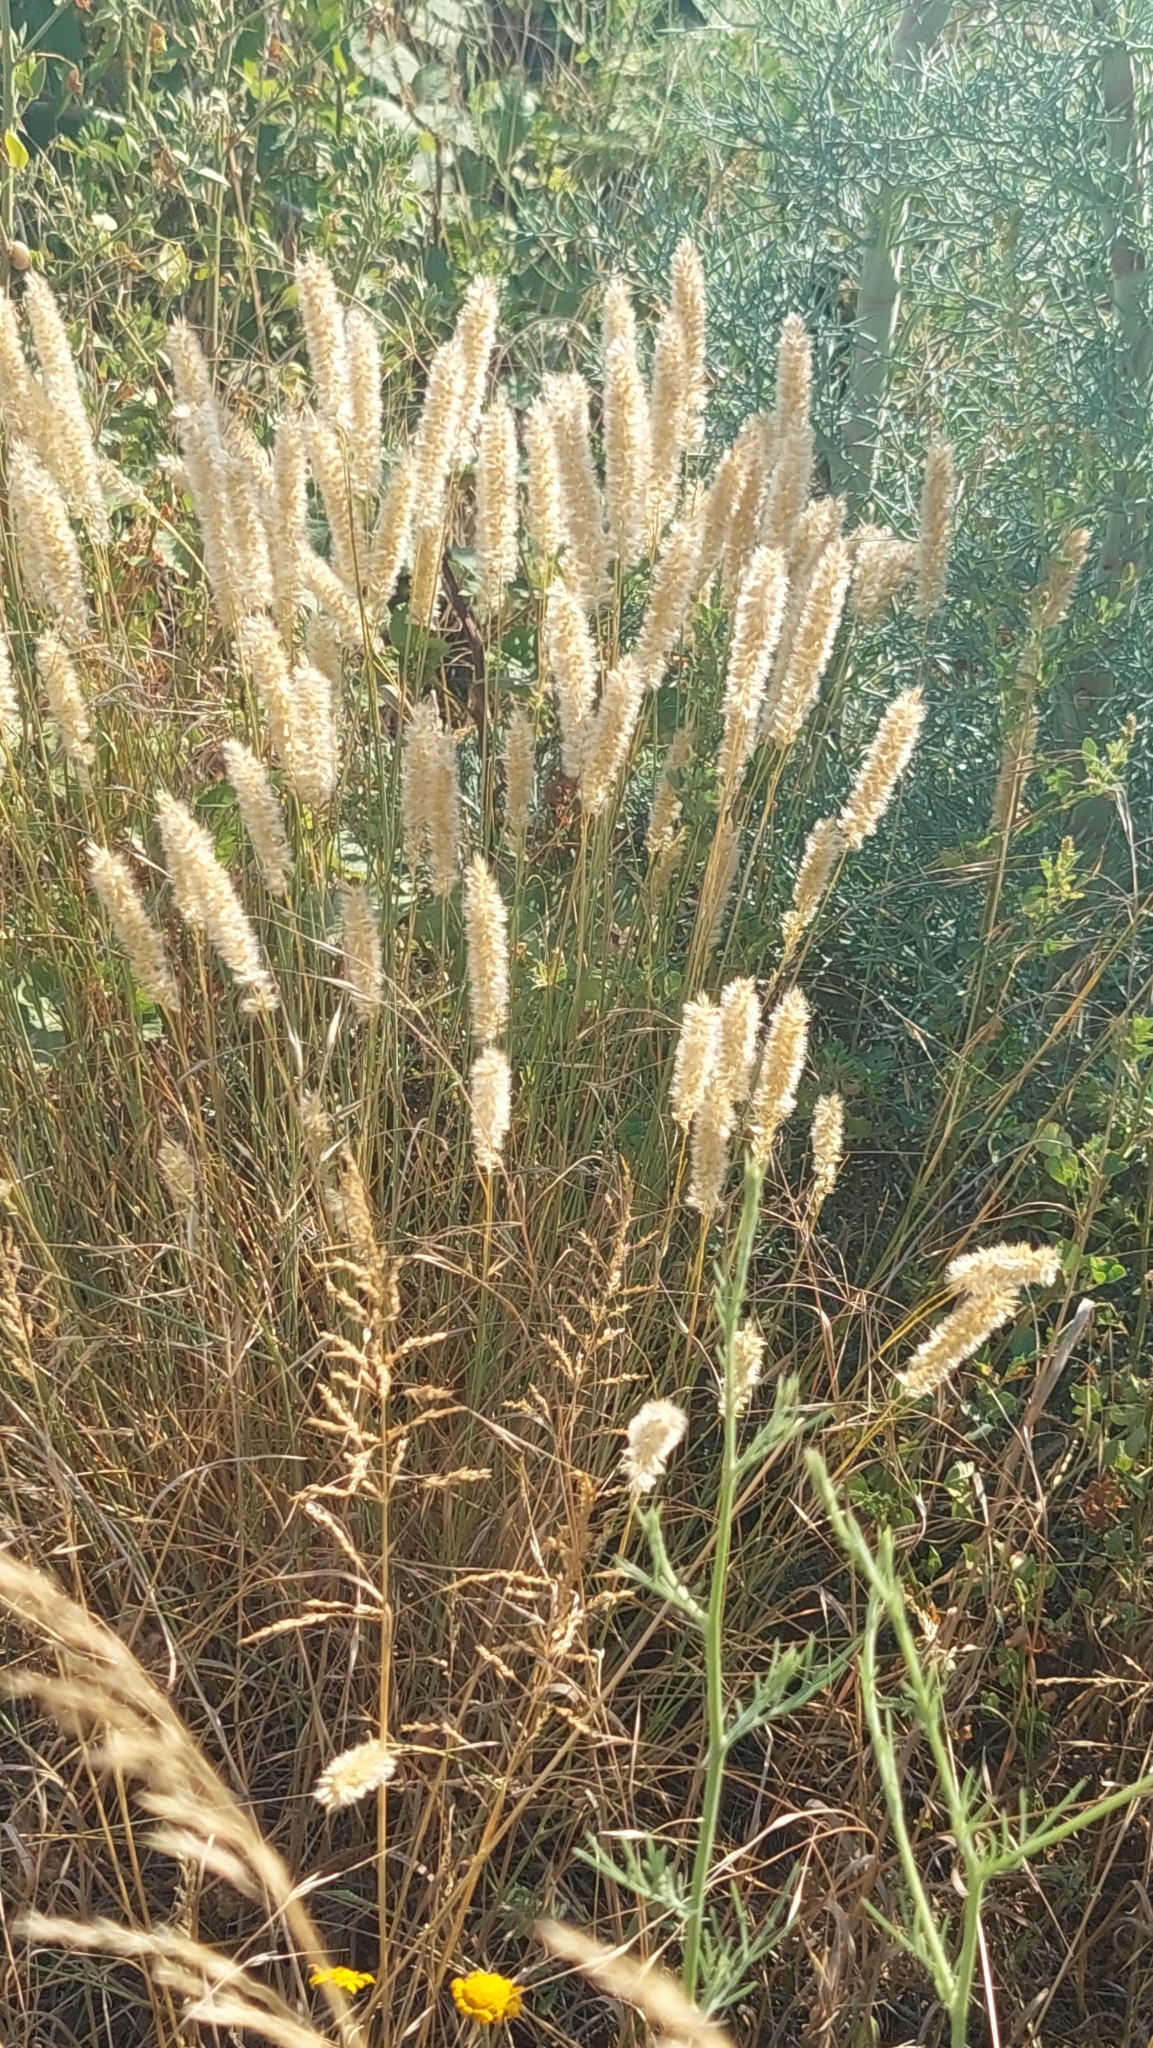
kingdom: Plantae
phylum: Tracheophyta
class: Liliopsida
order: Poales
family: Poaceae
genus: Melica
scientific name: Melica transsilvanica
